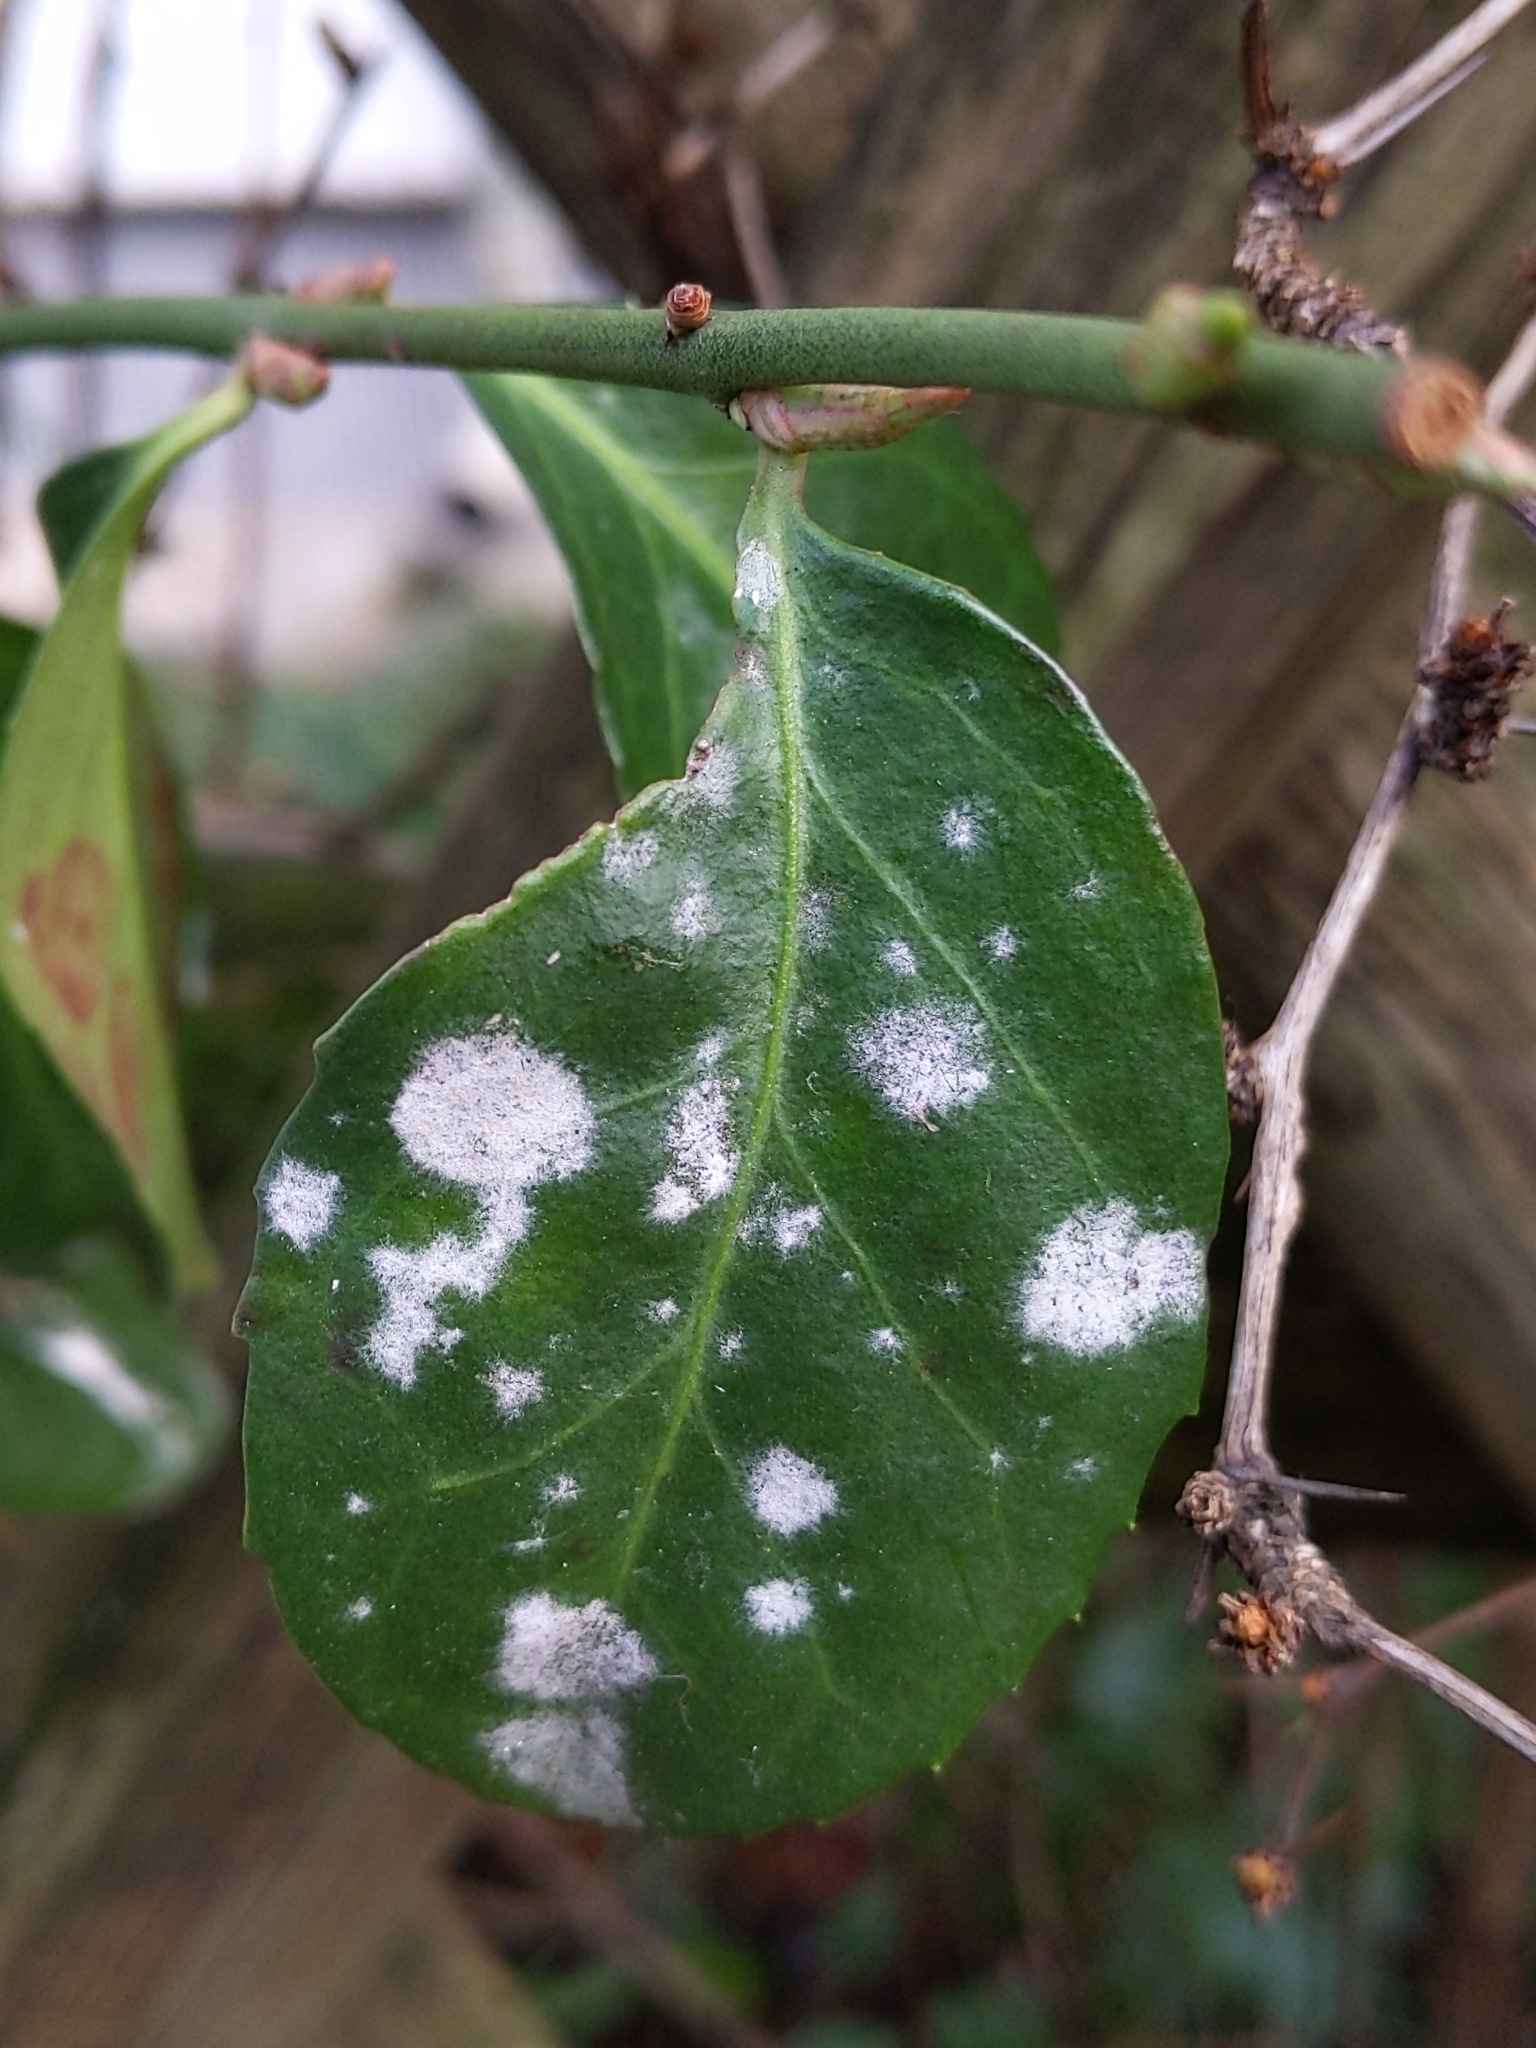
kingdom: Fungi
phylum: Ascomycota
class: Leotiomycetes
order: Helotiales
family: Erysiphaceae
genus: Erysiphe
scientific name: Erysiphe euonymicola
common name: Spindletree mildew
